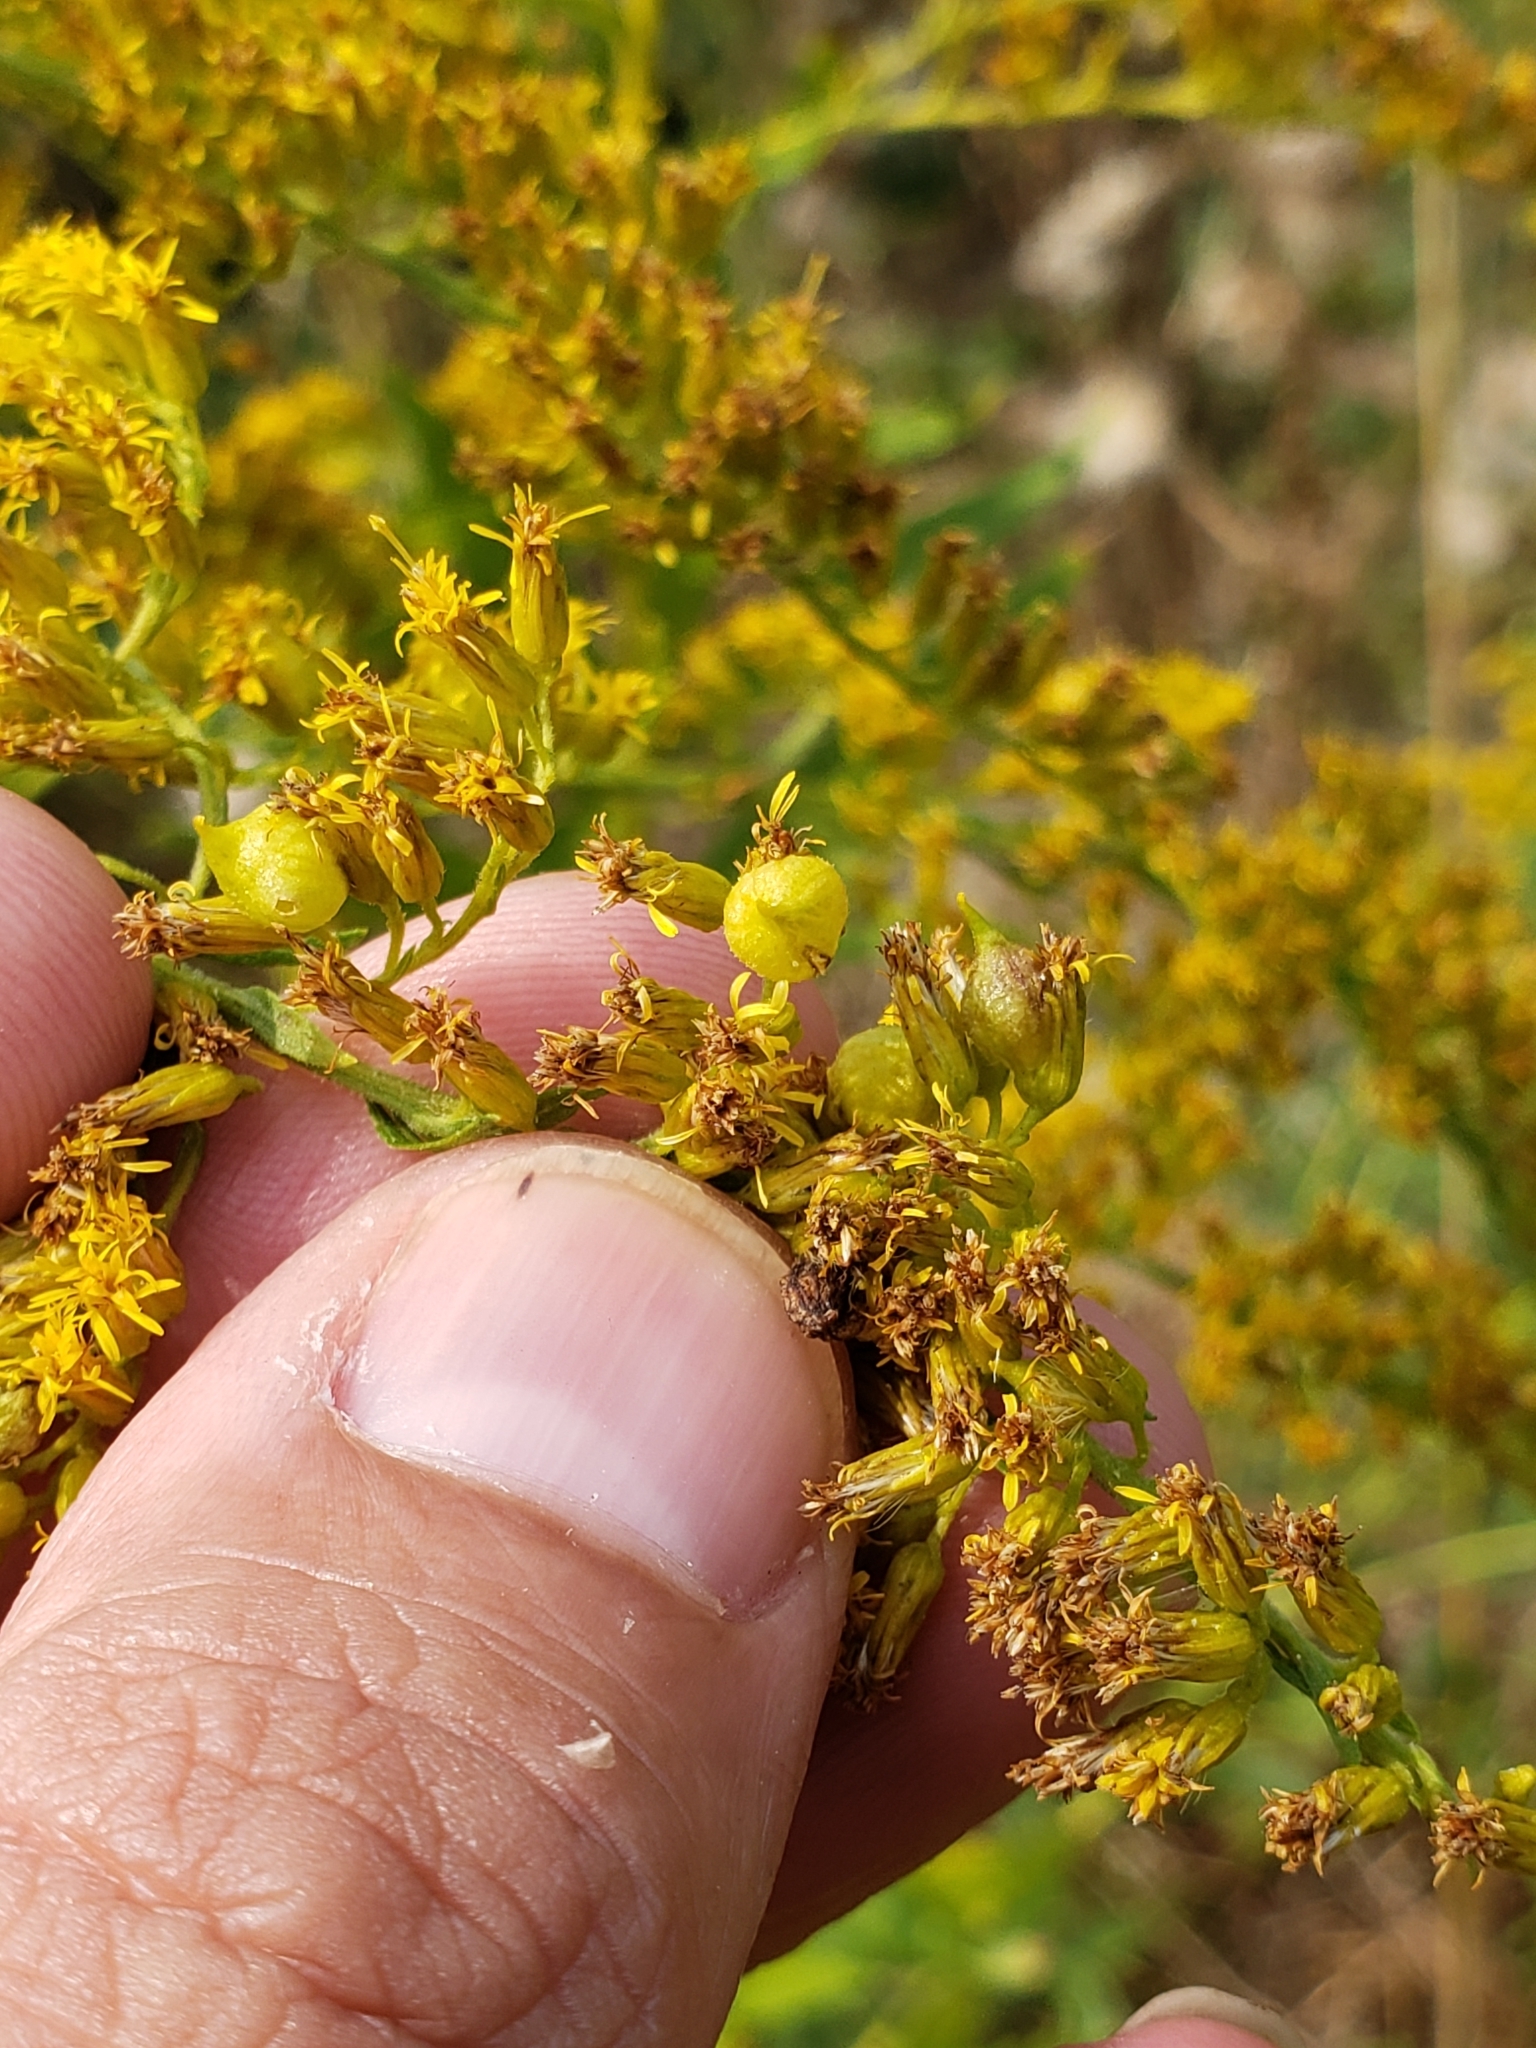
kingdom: Animalia
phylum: Arthropoda
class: Insecta
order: Diptera
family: Cecidomyiidae
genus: Schizomyia
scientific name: Schizomyia racemicola
